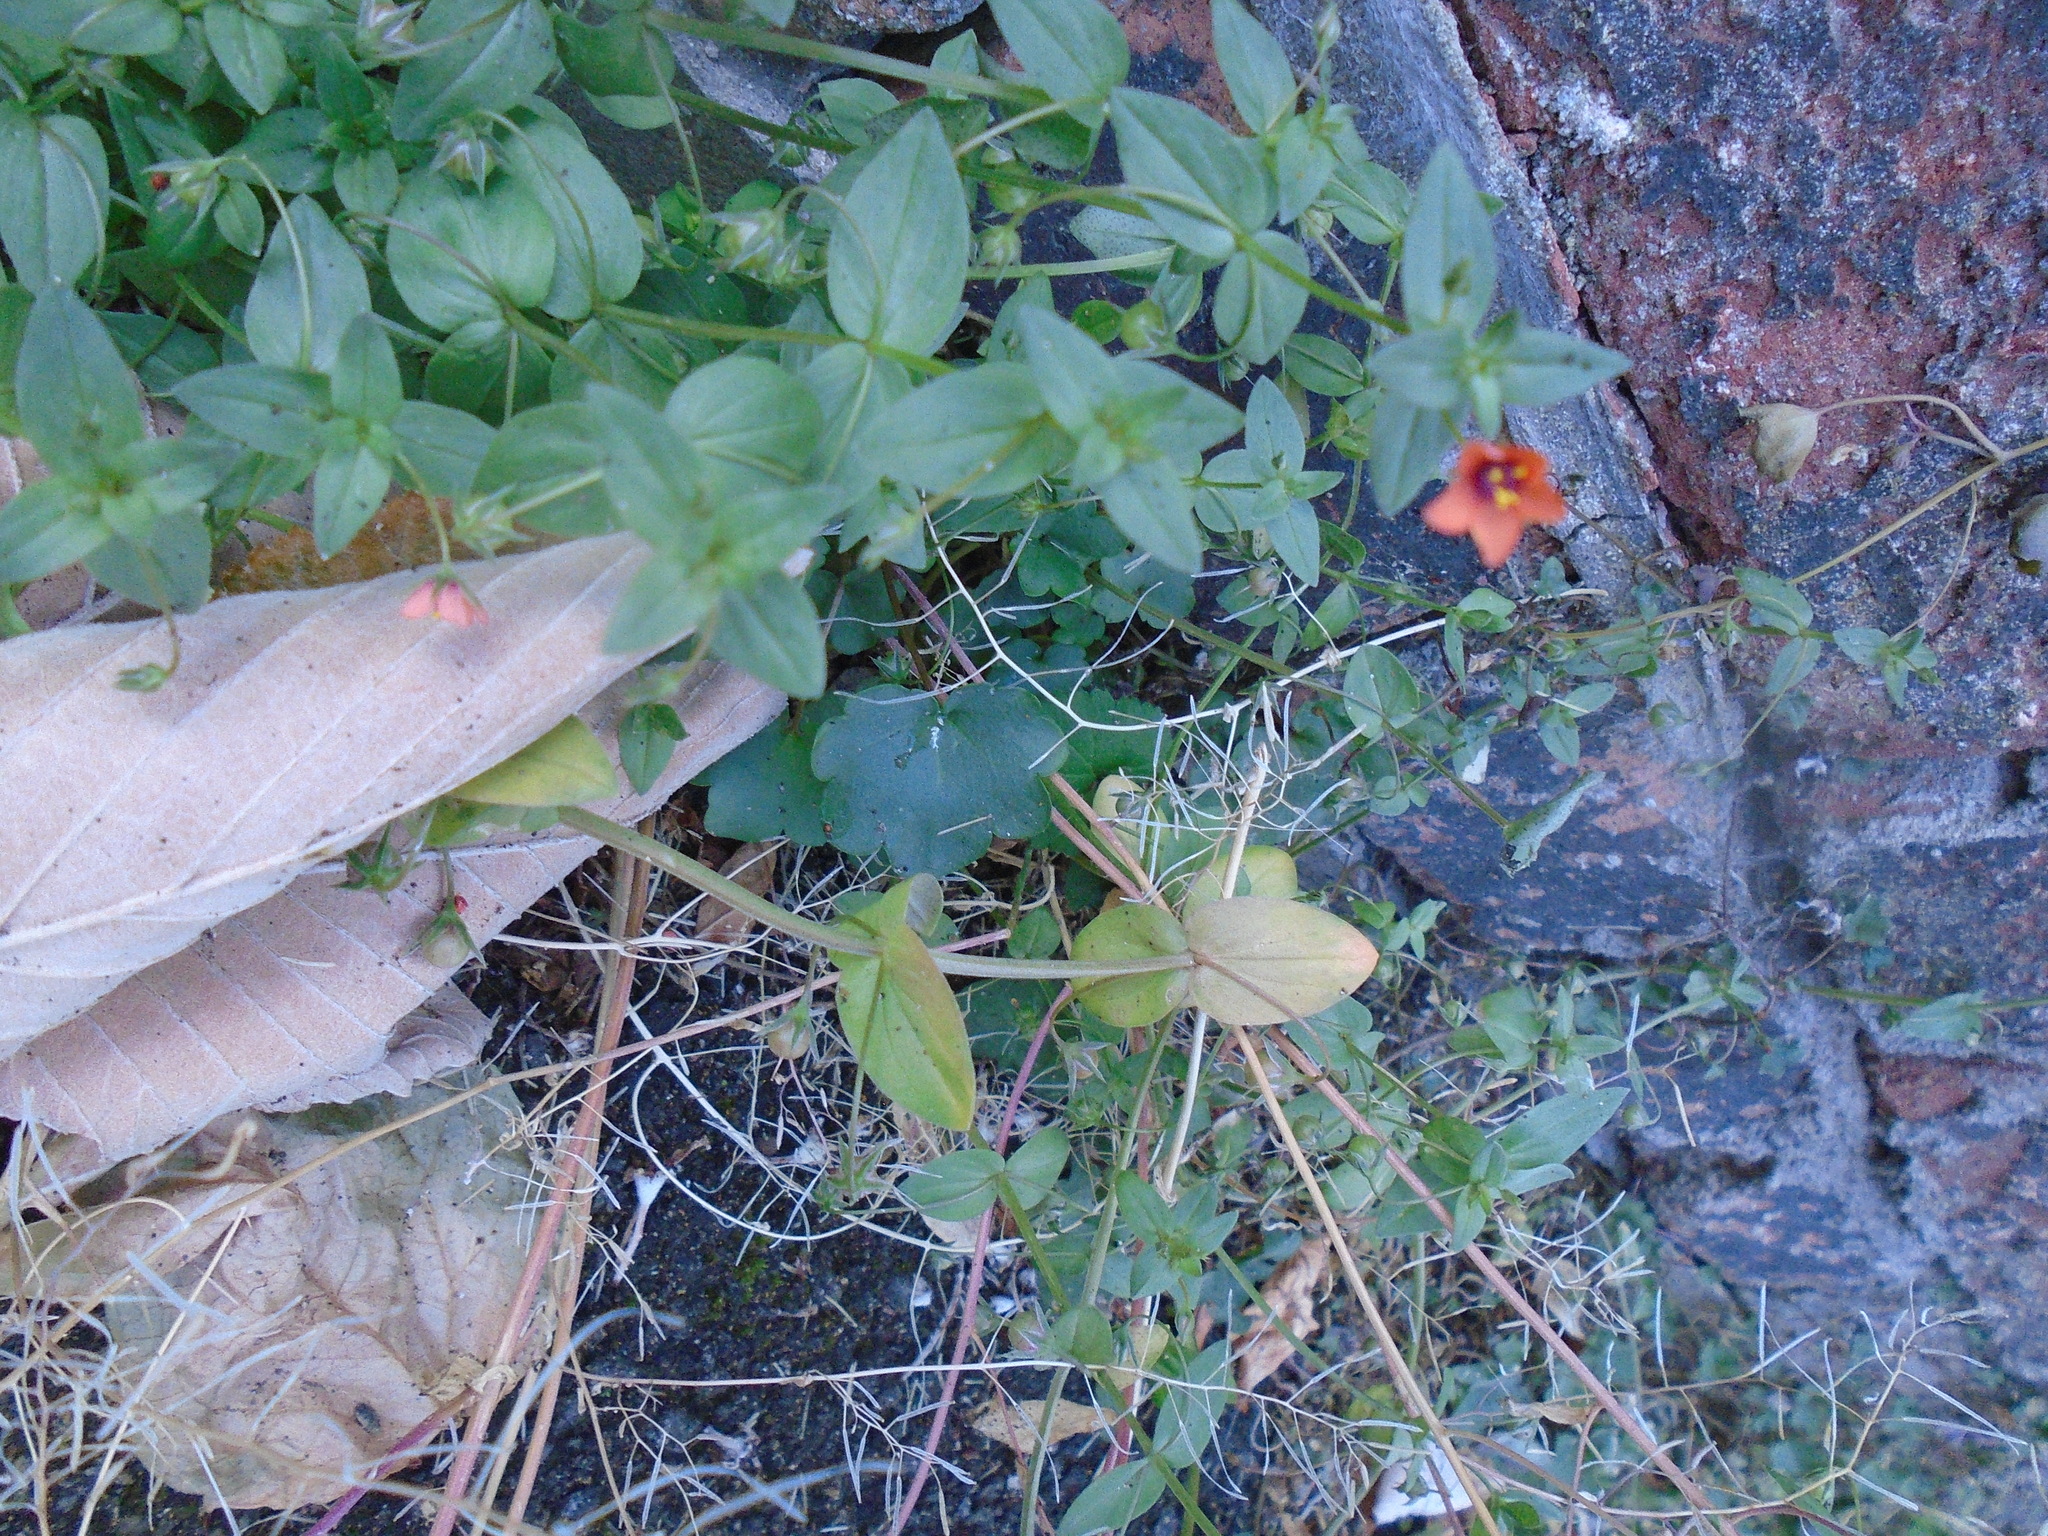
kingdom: Plantae
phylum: Tracheophyta
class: Magnoliopsida
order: Ericales
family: Primulaceae
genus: Lysimachia
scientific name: Lysimachia arvensis
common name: Scarlet pimpernel
